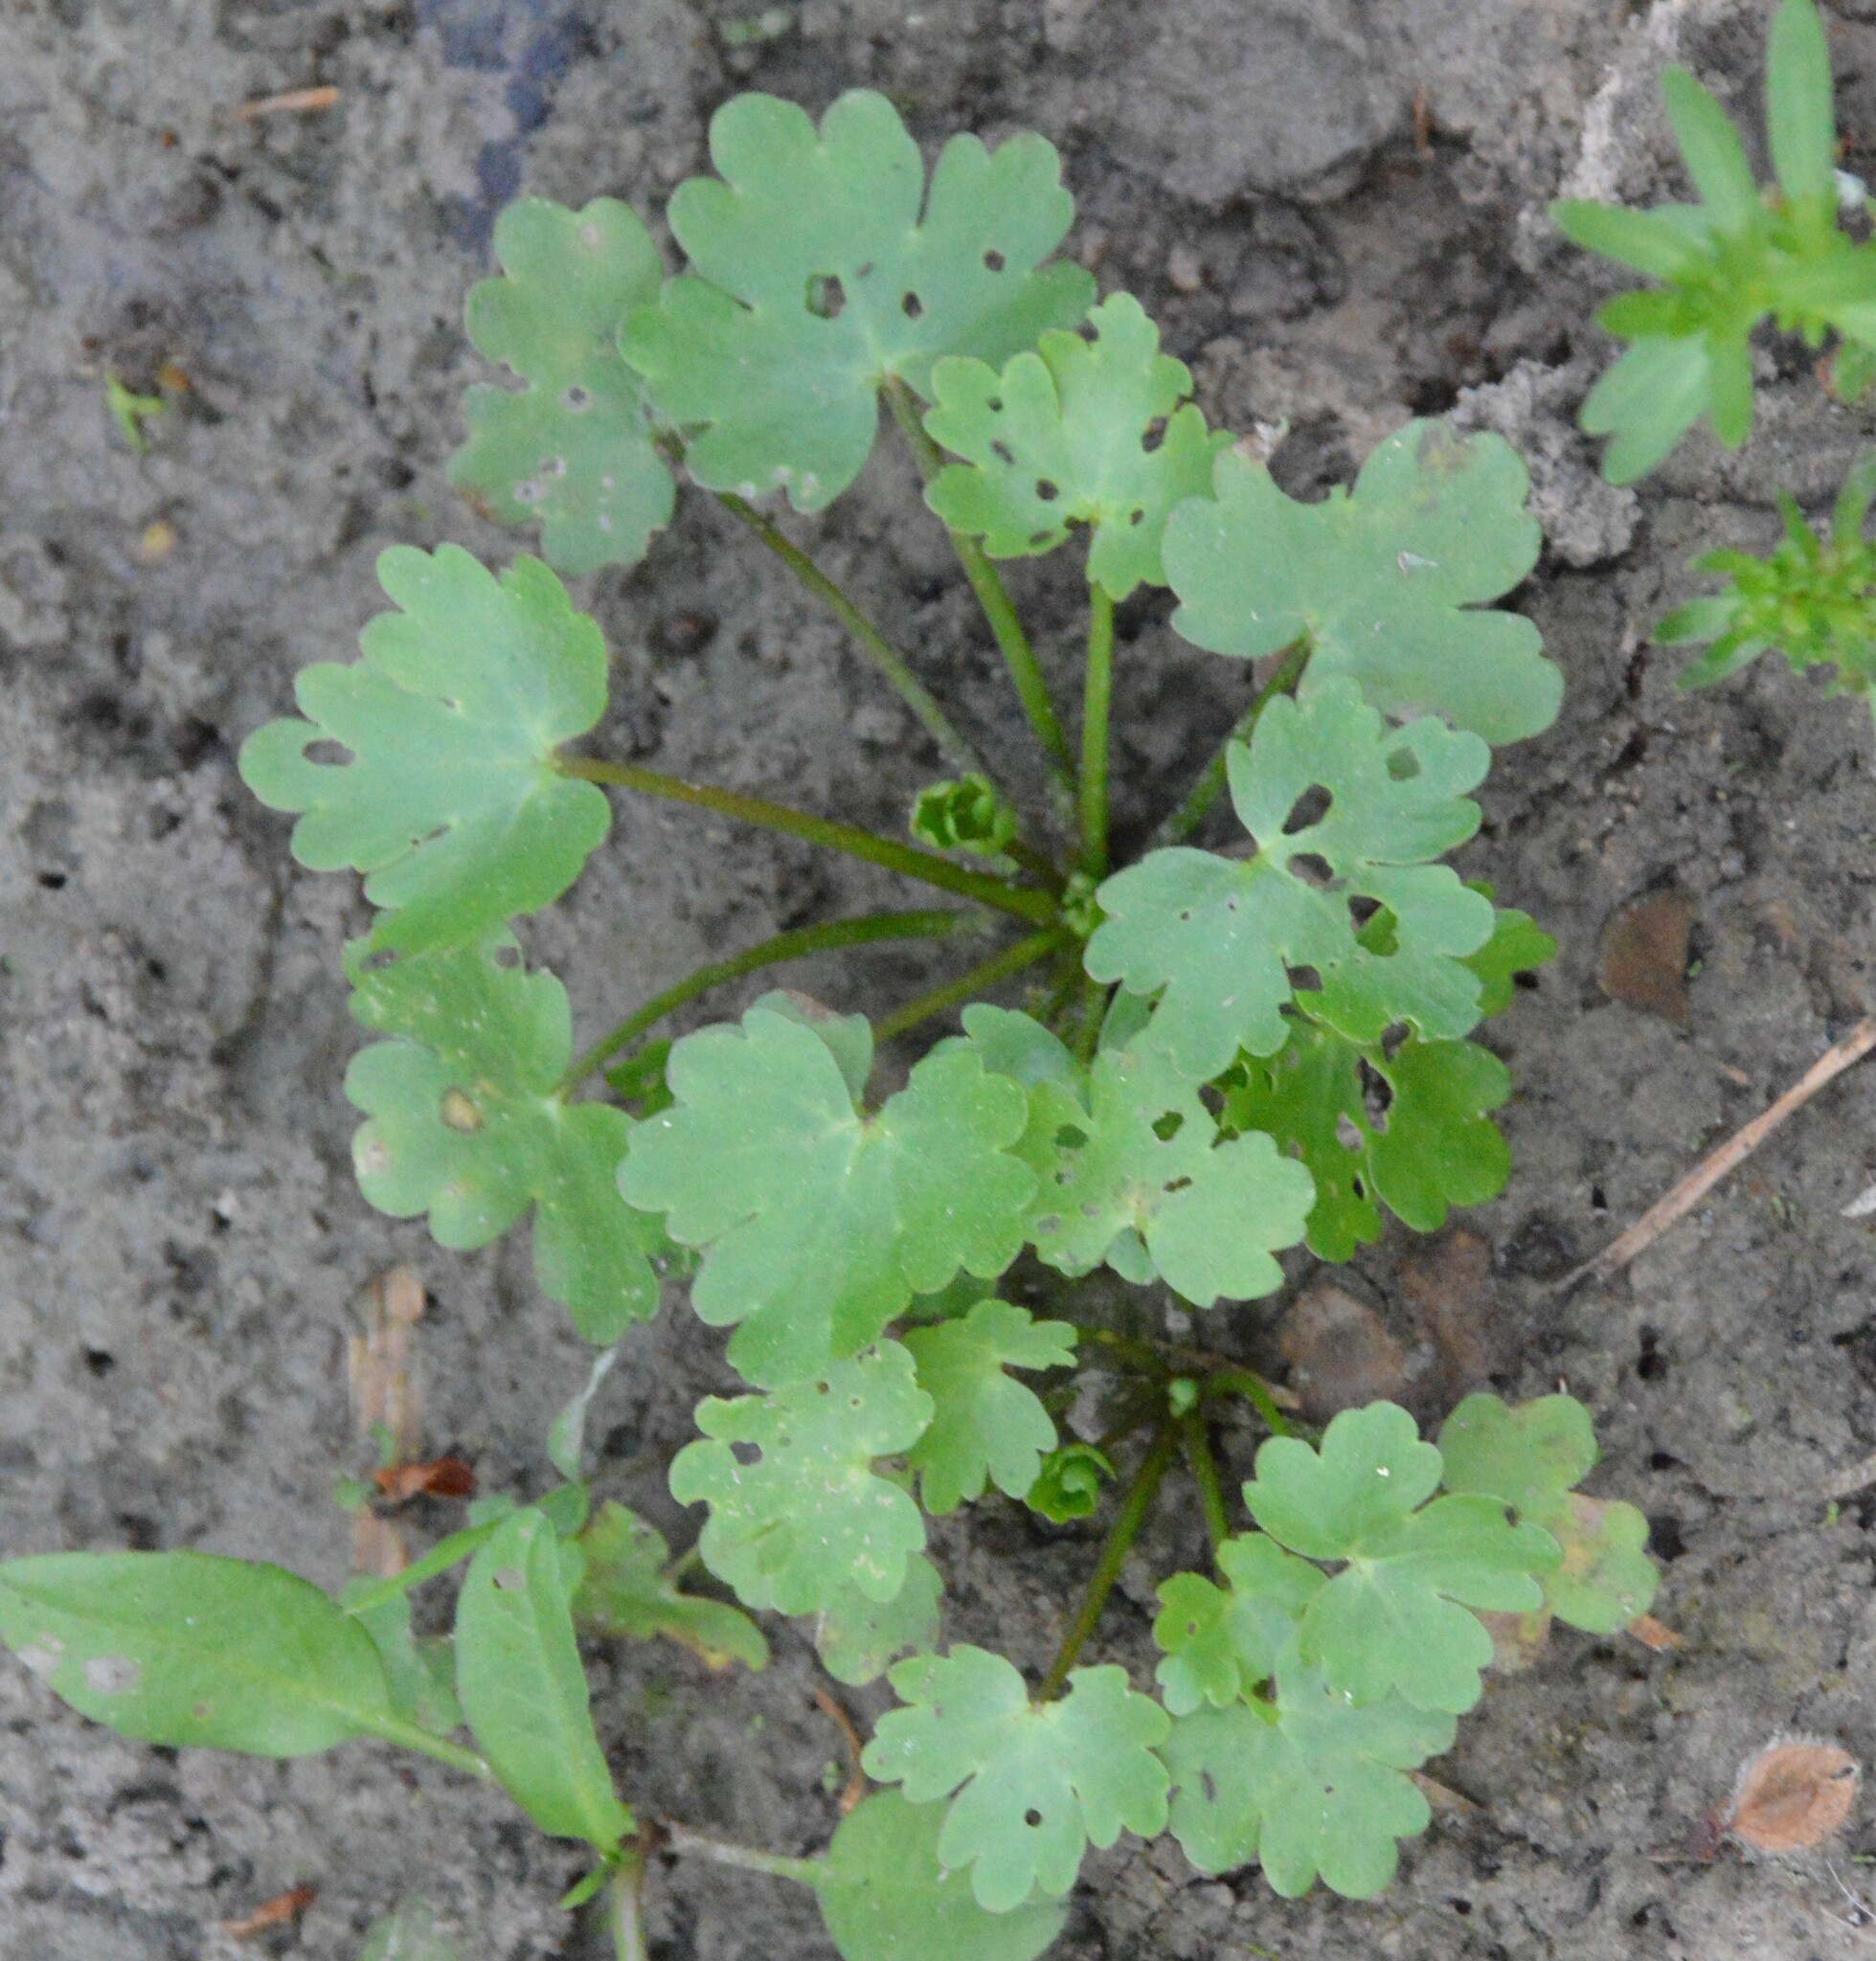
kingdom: Plantae
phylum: Tracheophyta
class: Magnoliopsida
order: Ranunculales
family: Ranunculaceae
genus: Ranunculus
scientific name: Ranunculus sceleratus
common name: Celery-leaved buttercup
